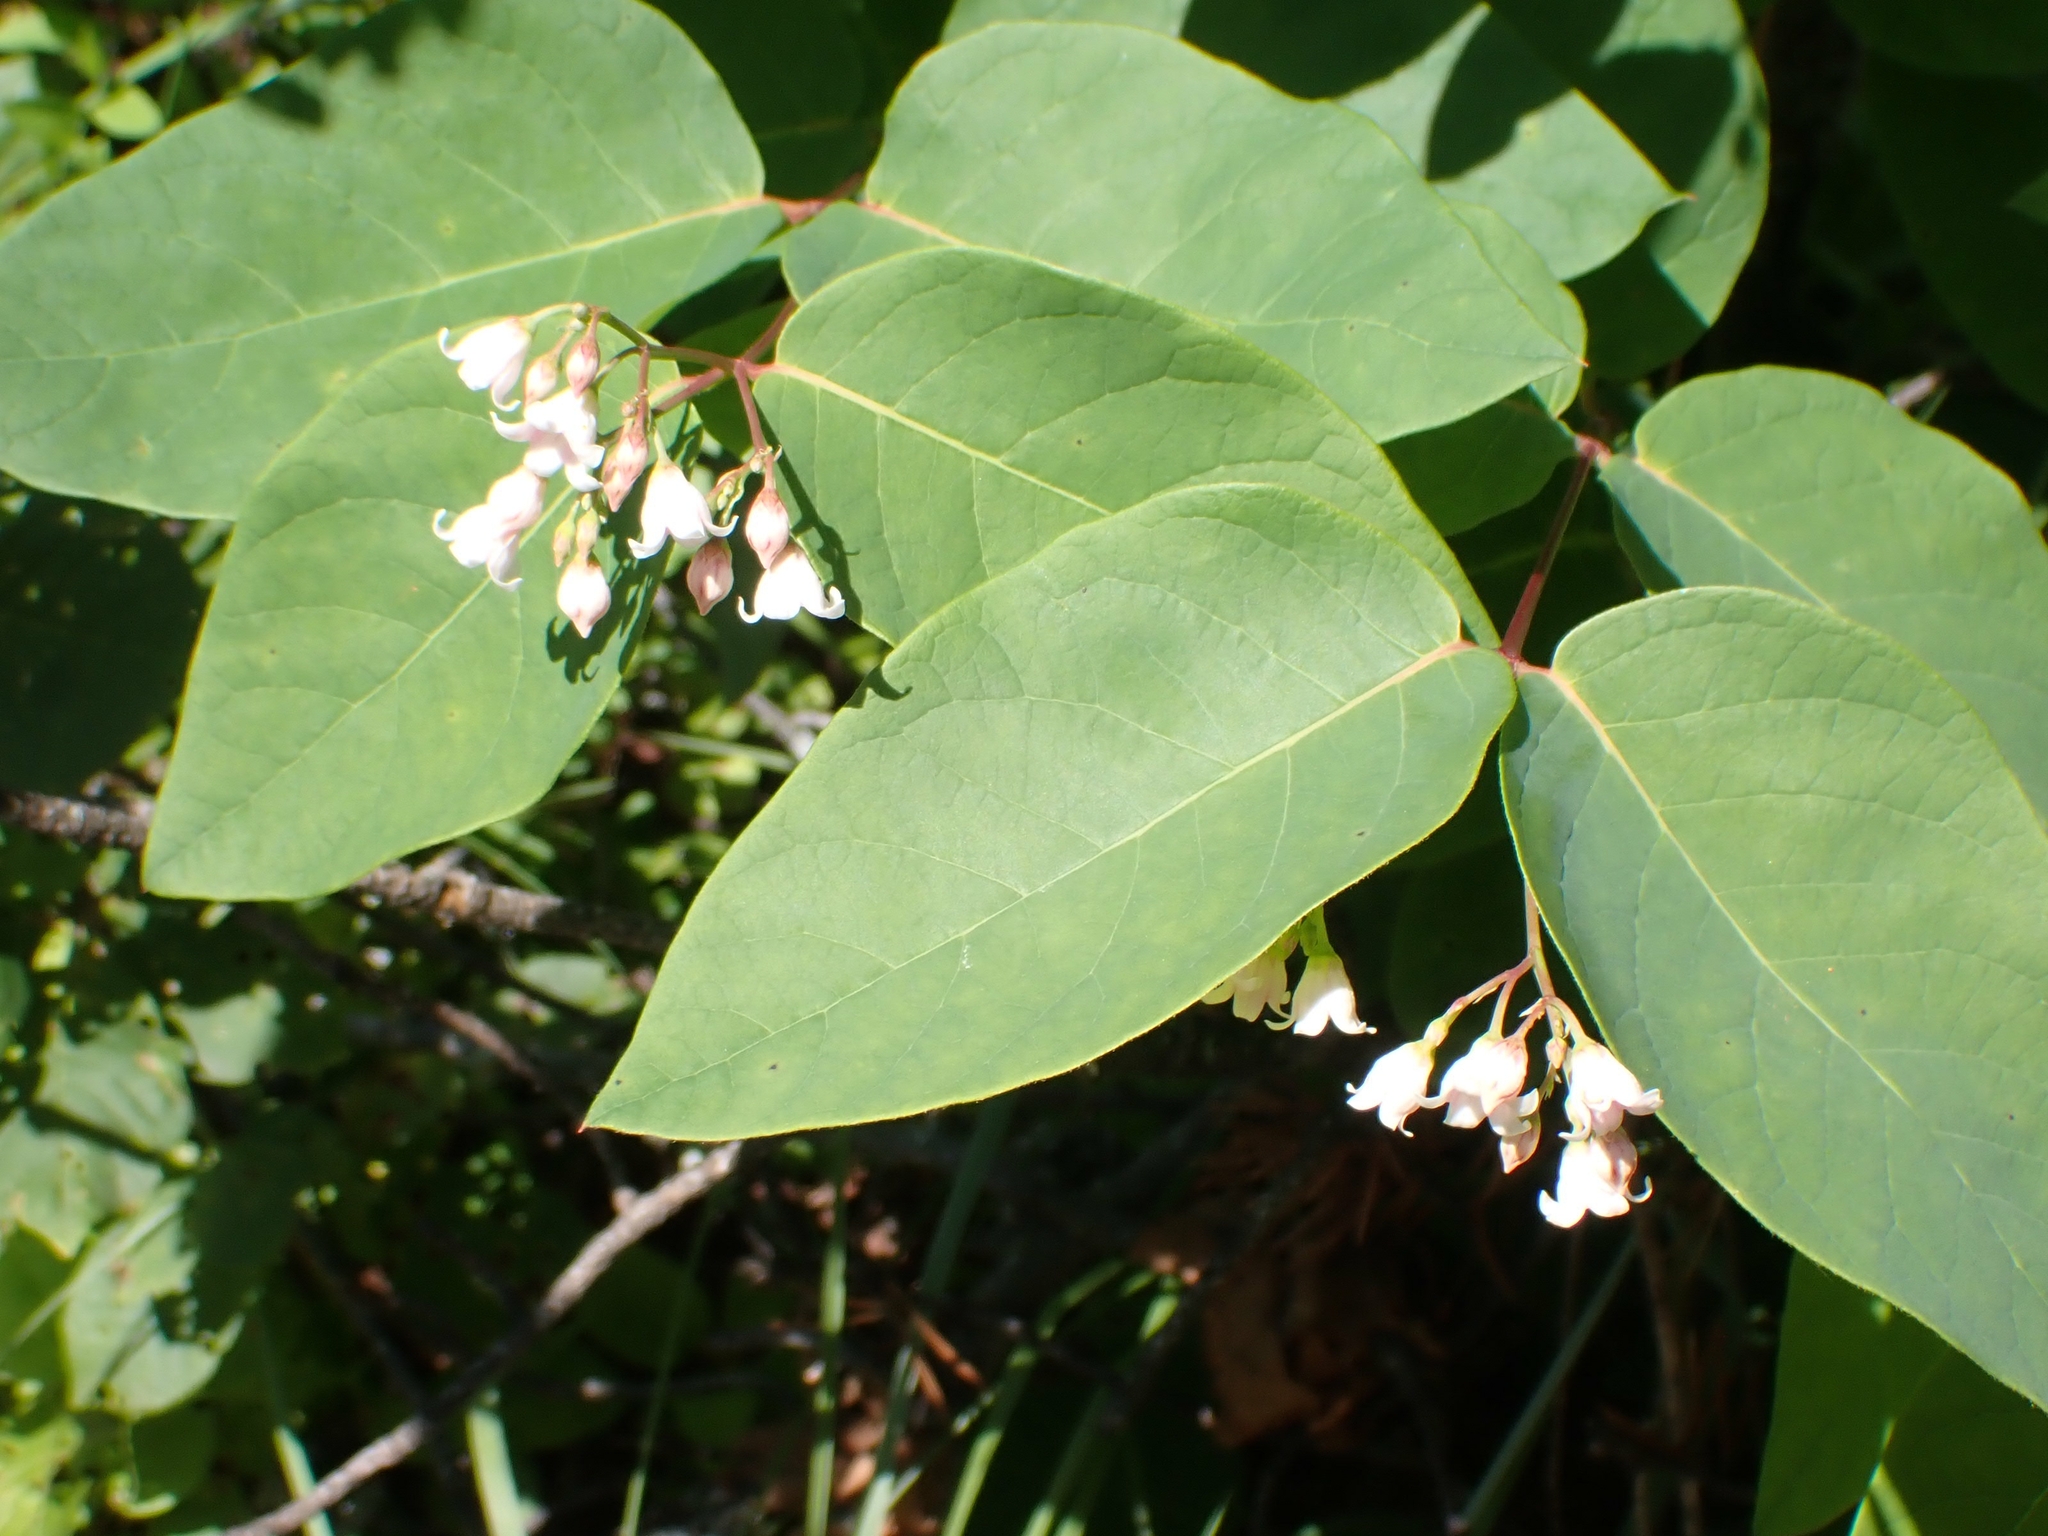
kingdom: Plantae
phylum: Tracheophyta
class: Magnoliopsida
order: Gentianales
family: Apocynaceae
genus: Apocynum
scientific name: Apocynum androsaemifolium
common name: Spreading dogbane
